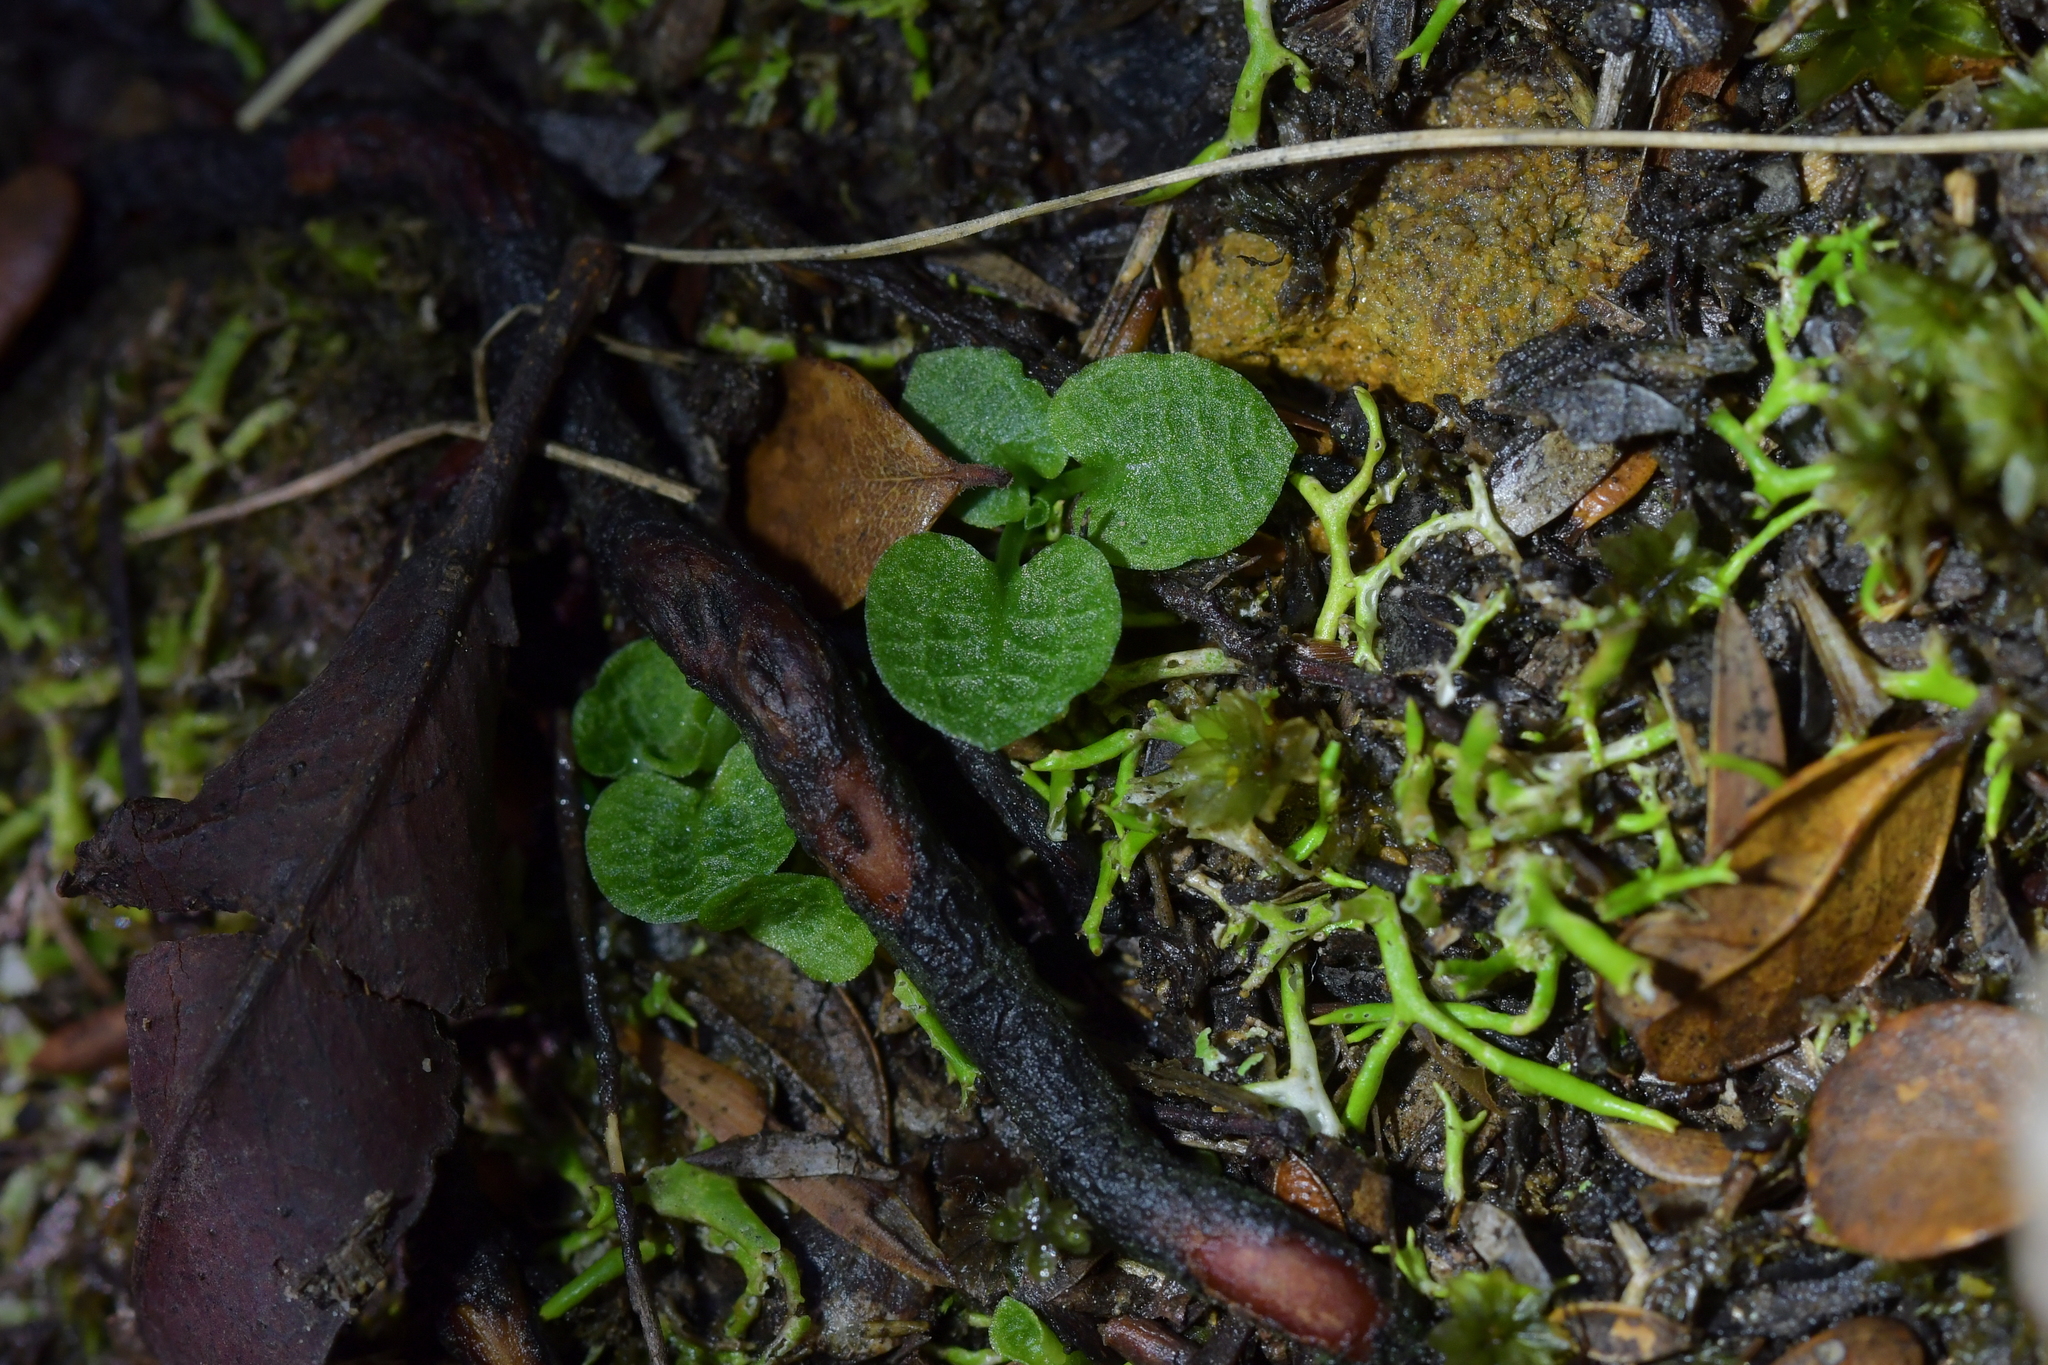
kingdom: Plantae
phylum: Tracheophyta
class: Liliopsida
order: Asparagales
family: Orchidaceae
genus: Pterostylis
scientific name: Pterostylis trullifolia
